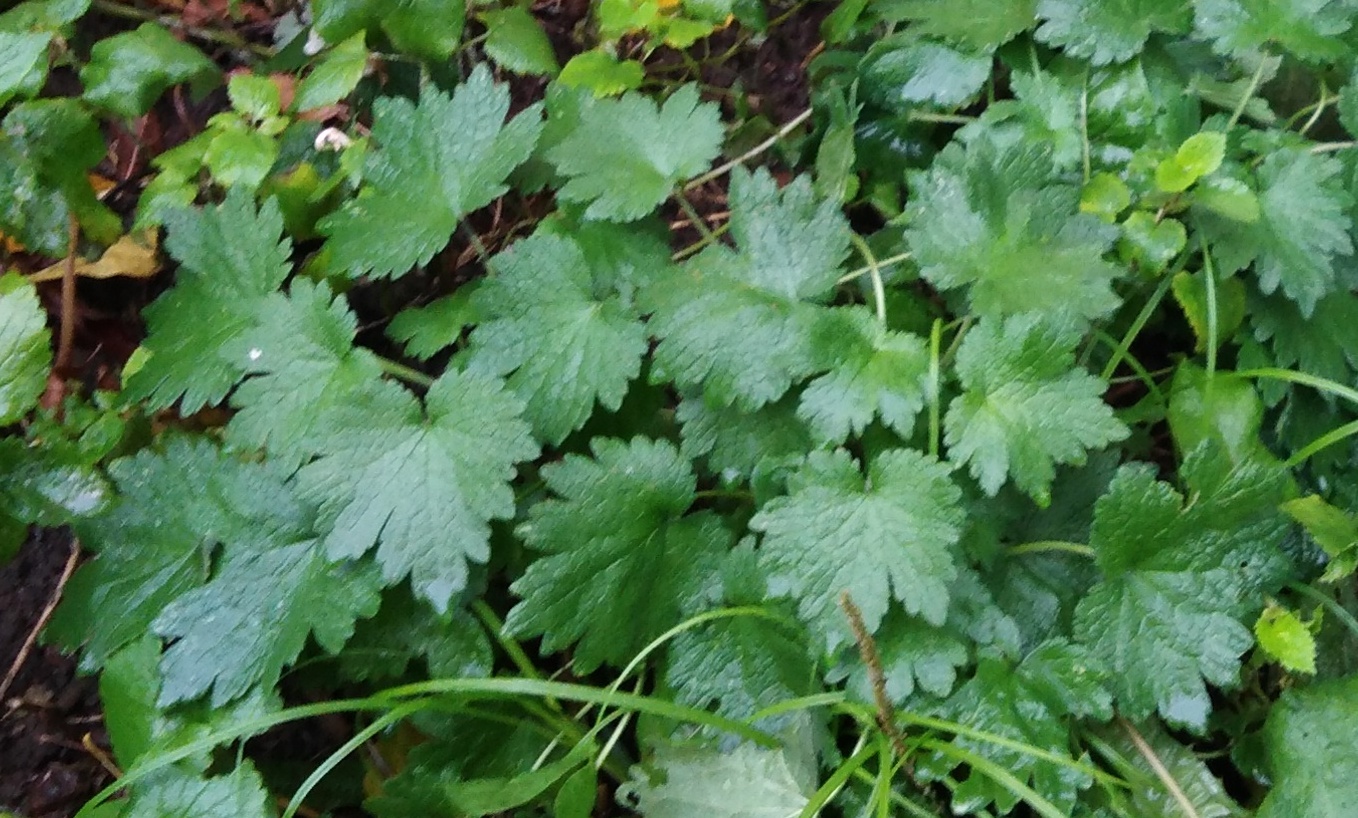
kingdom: Plantae
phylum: Tracheophyta
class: Magnoliopsida
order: Lamiales
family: Lamiaceae
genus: Leonurus
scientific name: Leonurus quinquelobatus
